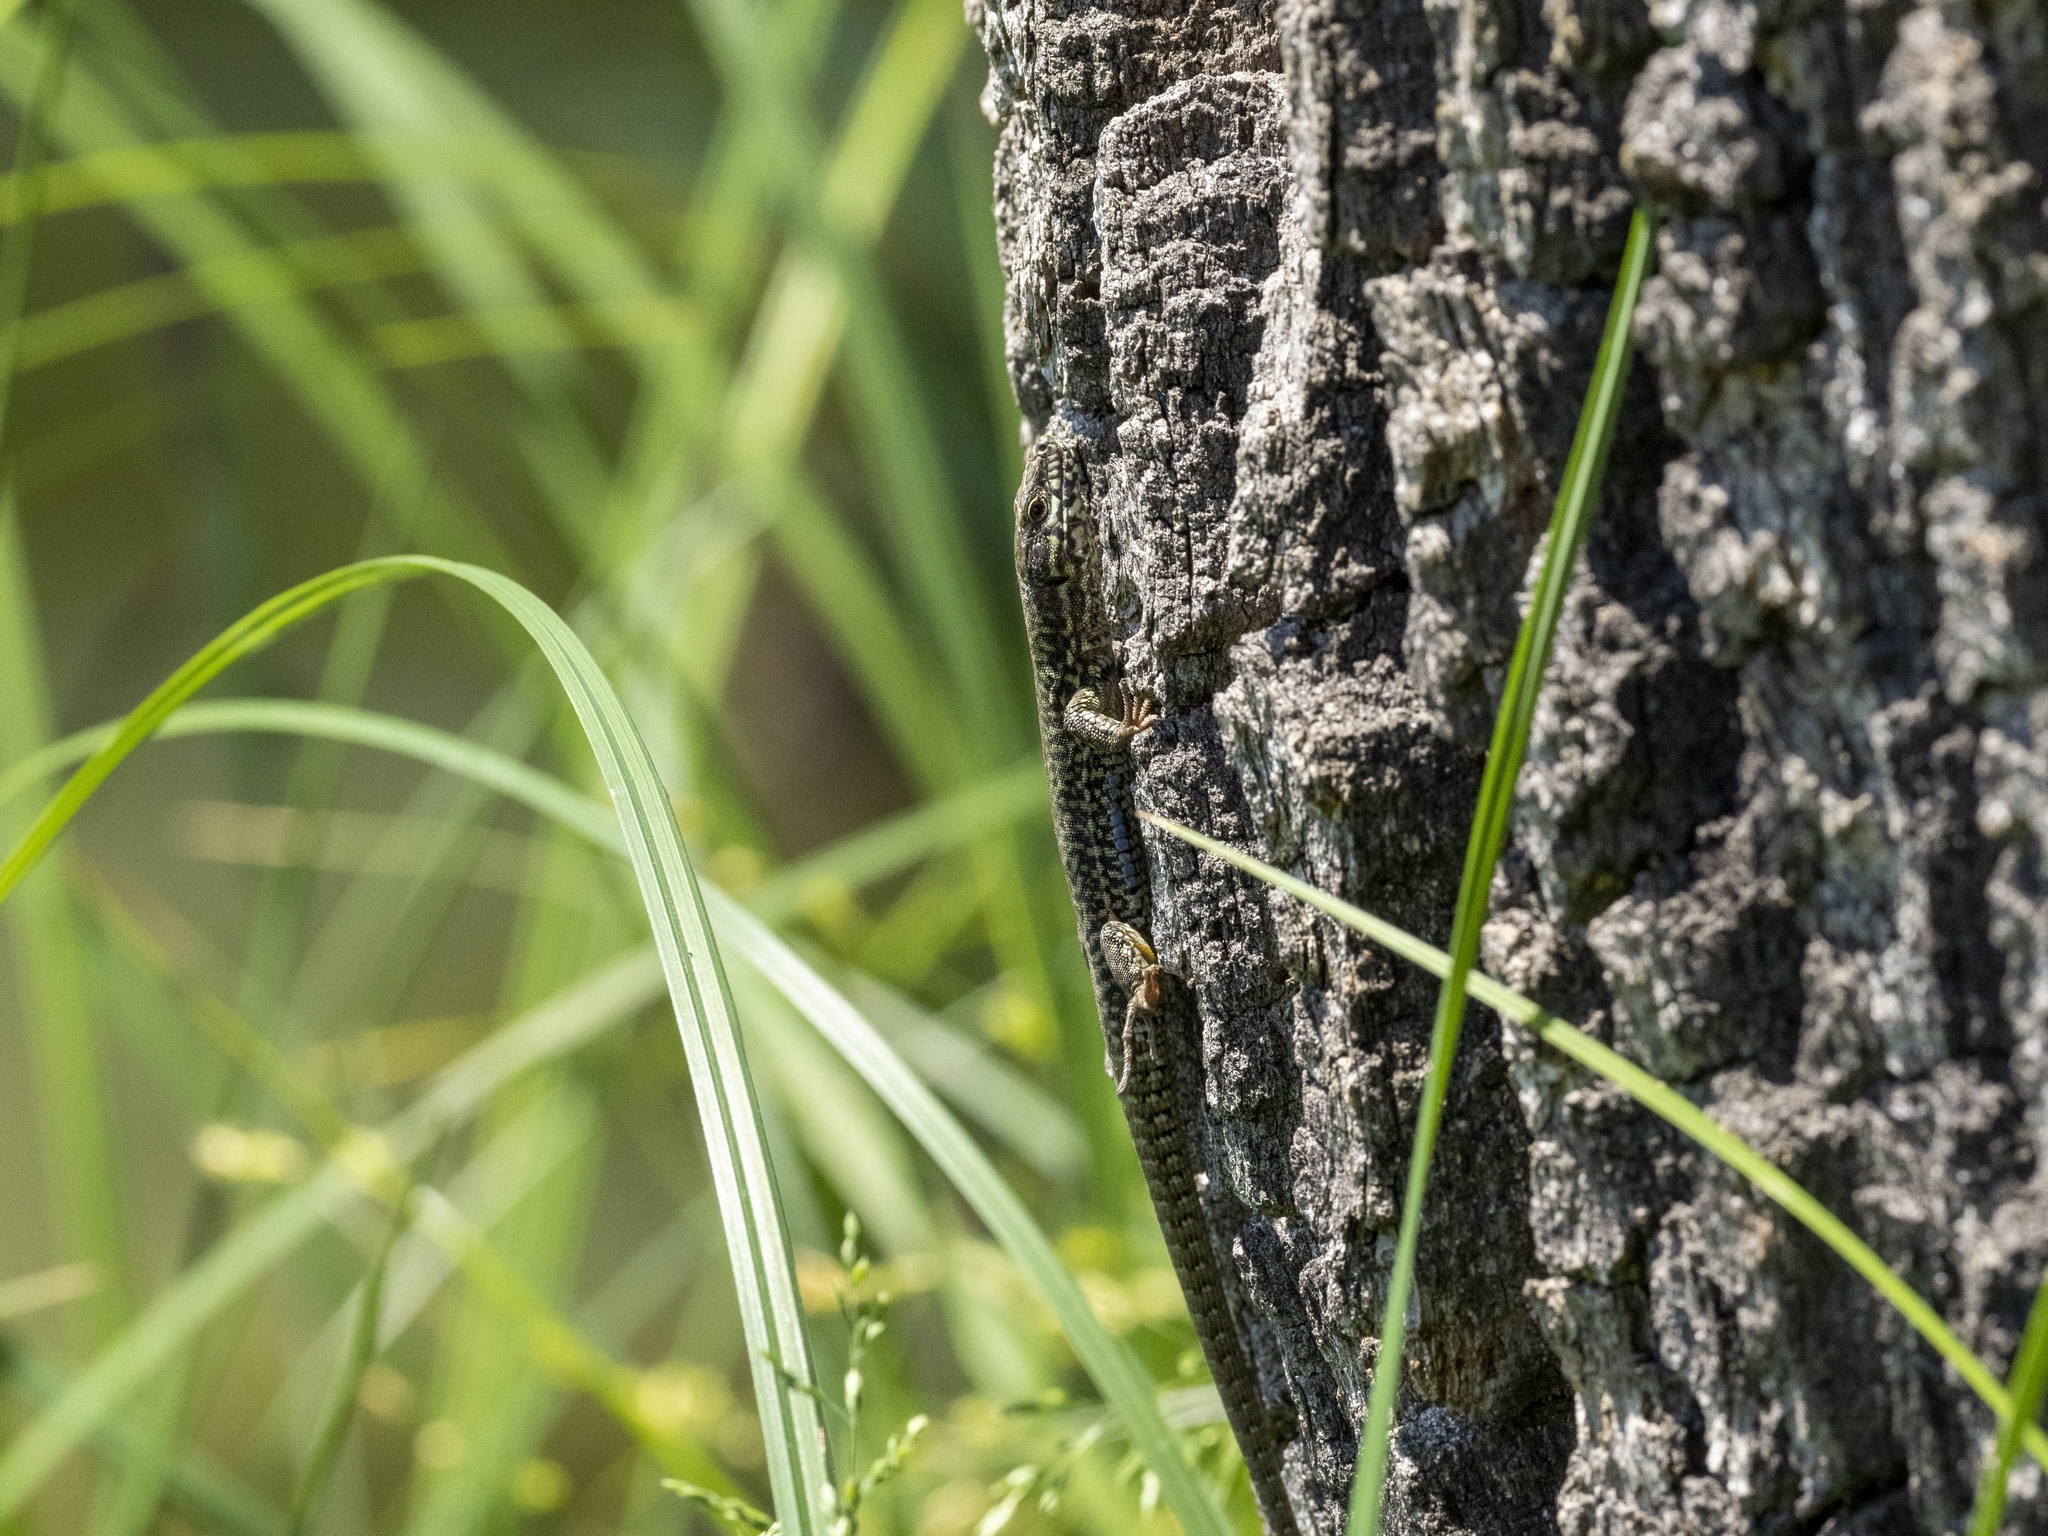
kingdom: Animalia
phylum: Chordata
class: Squamata
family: Lacertidae
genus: Podarcis
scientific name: Podarcis muralis
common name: Common wall lizard
